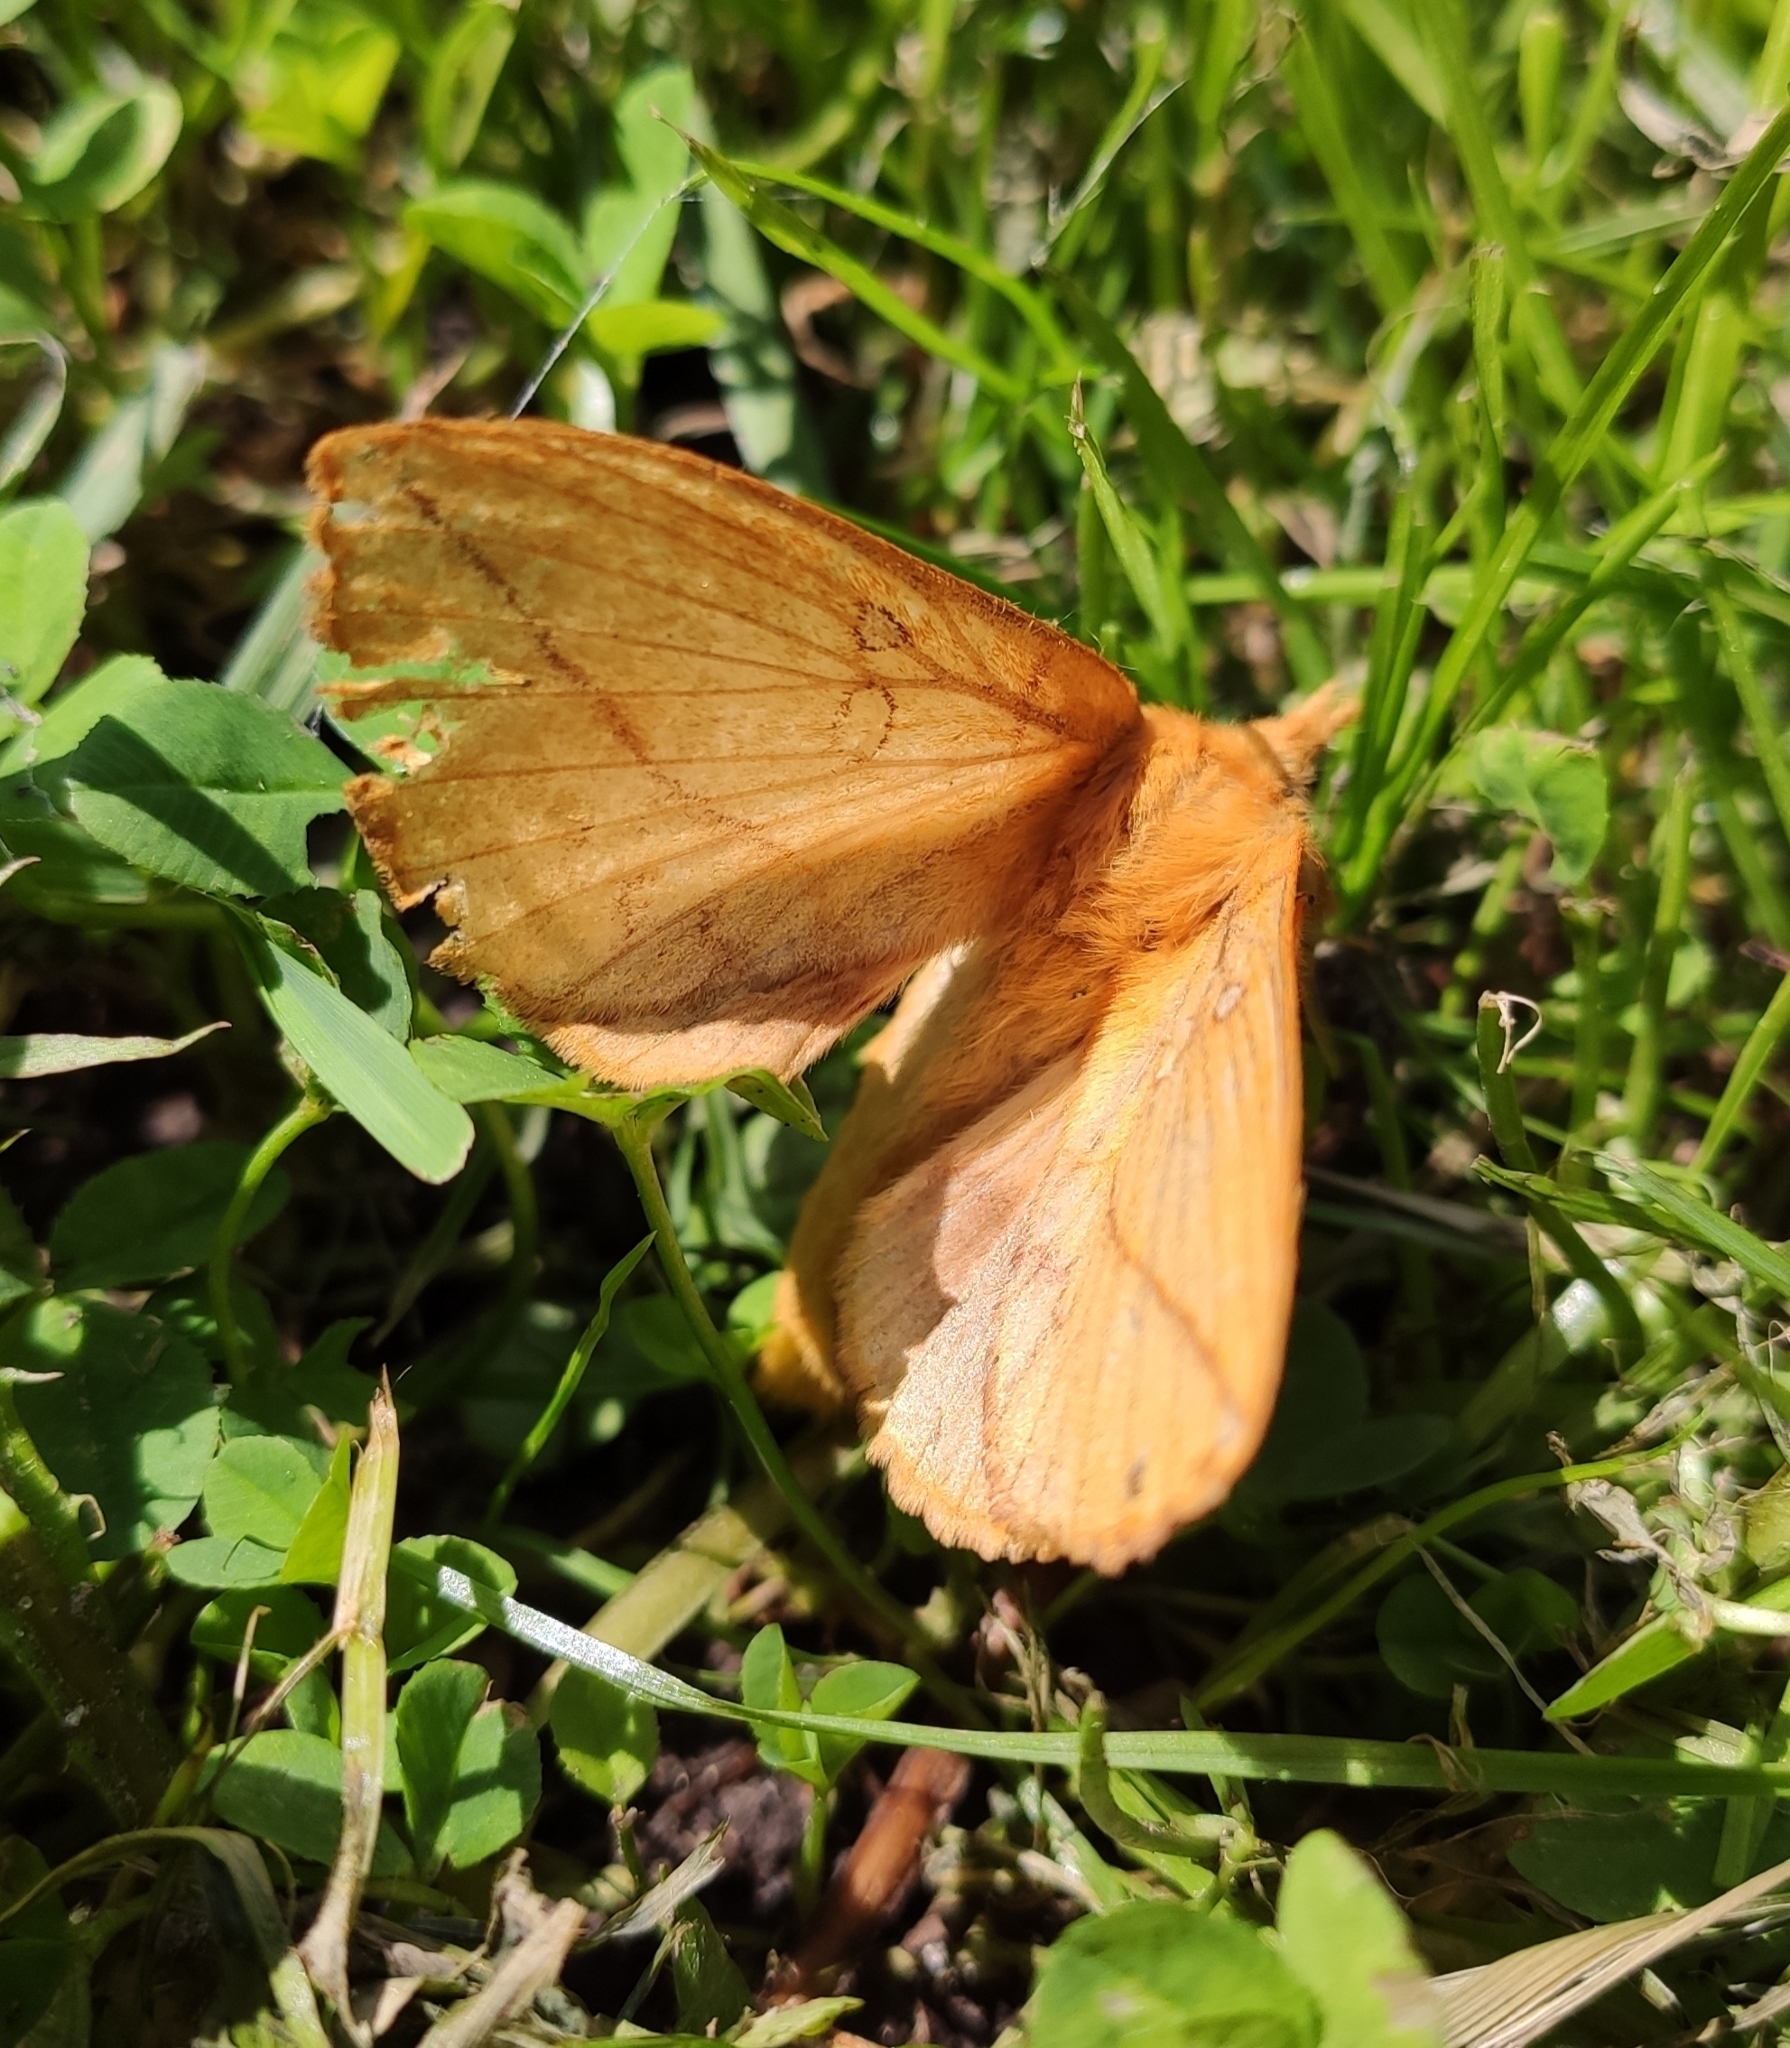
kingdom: Animalia
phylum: Arthropoda
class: Insecta
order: Lepidoptera
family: Lasiocampidae
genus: Euthrix
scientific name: Euthrix potatoria
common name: Drinker
